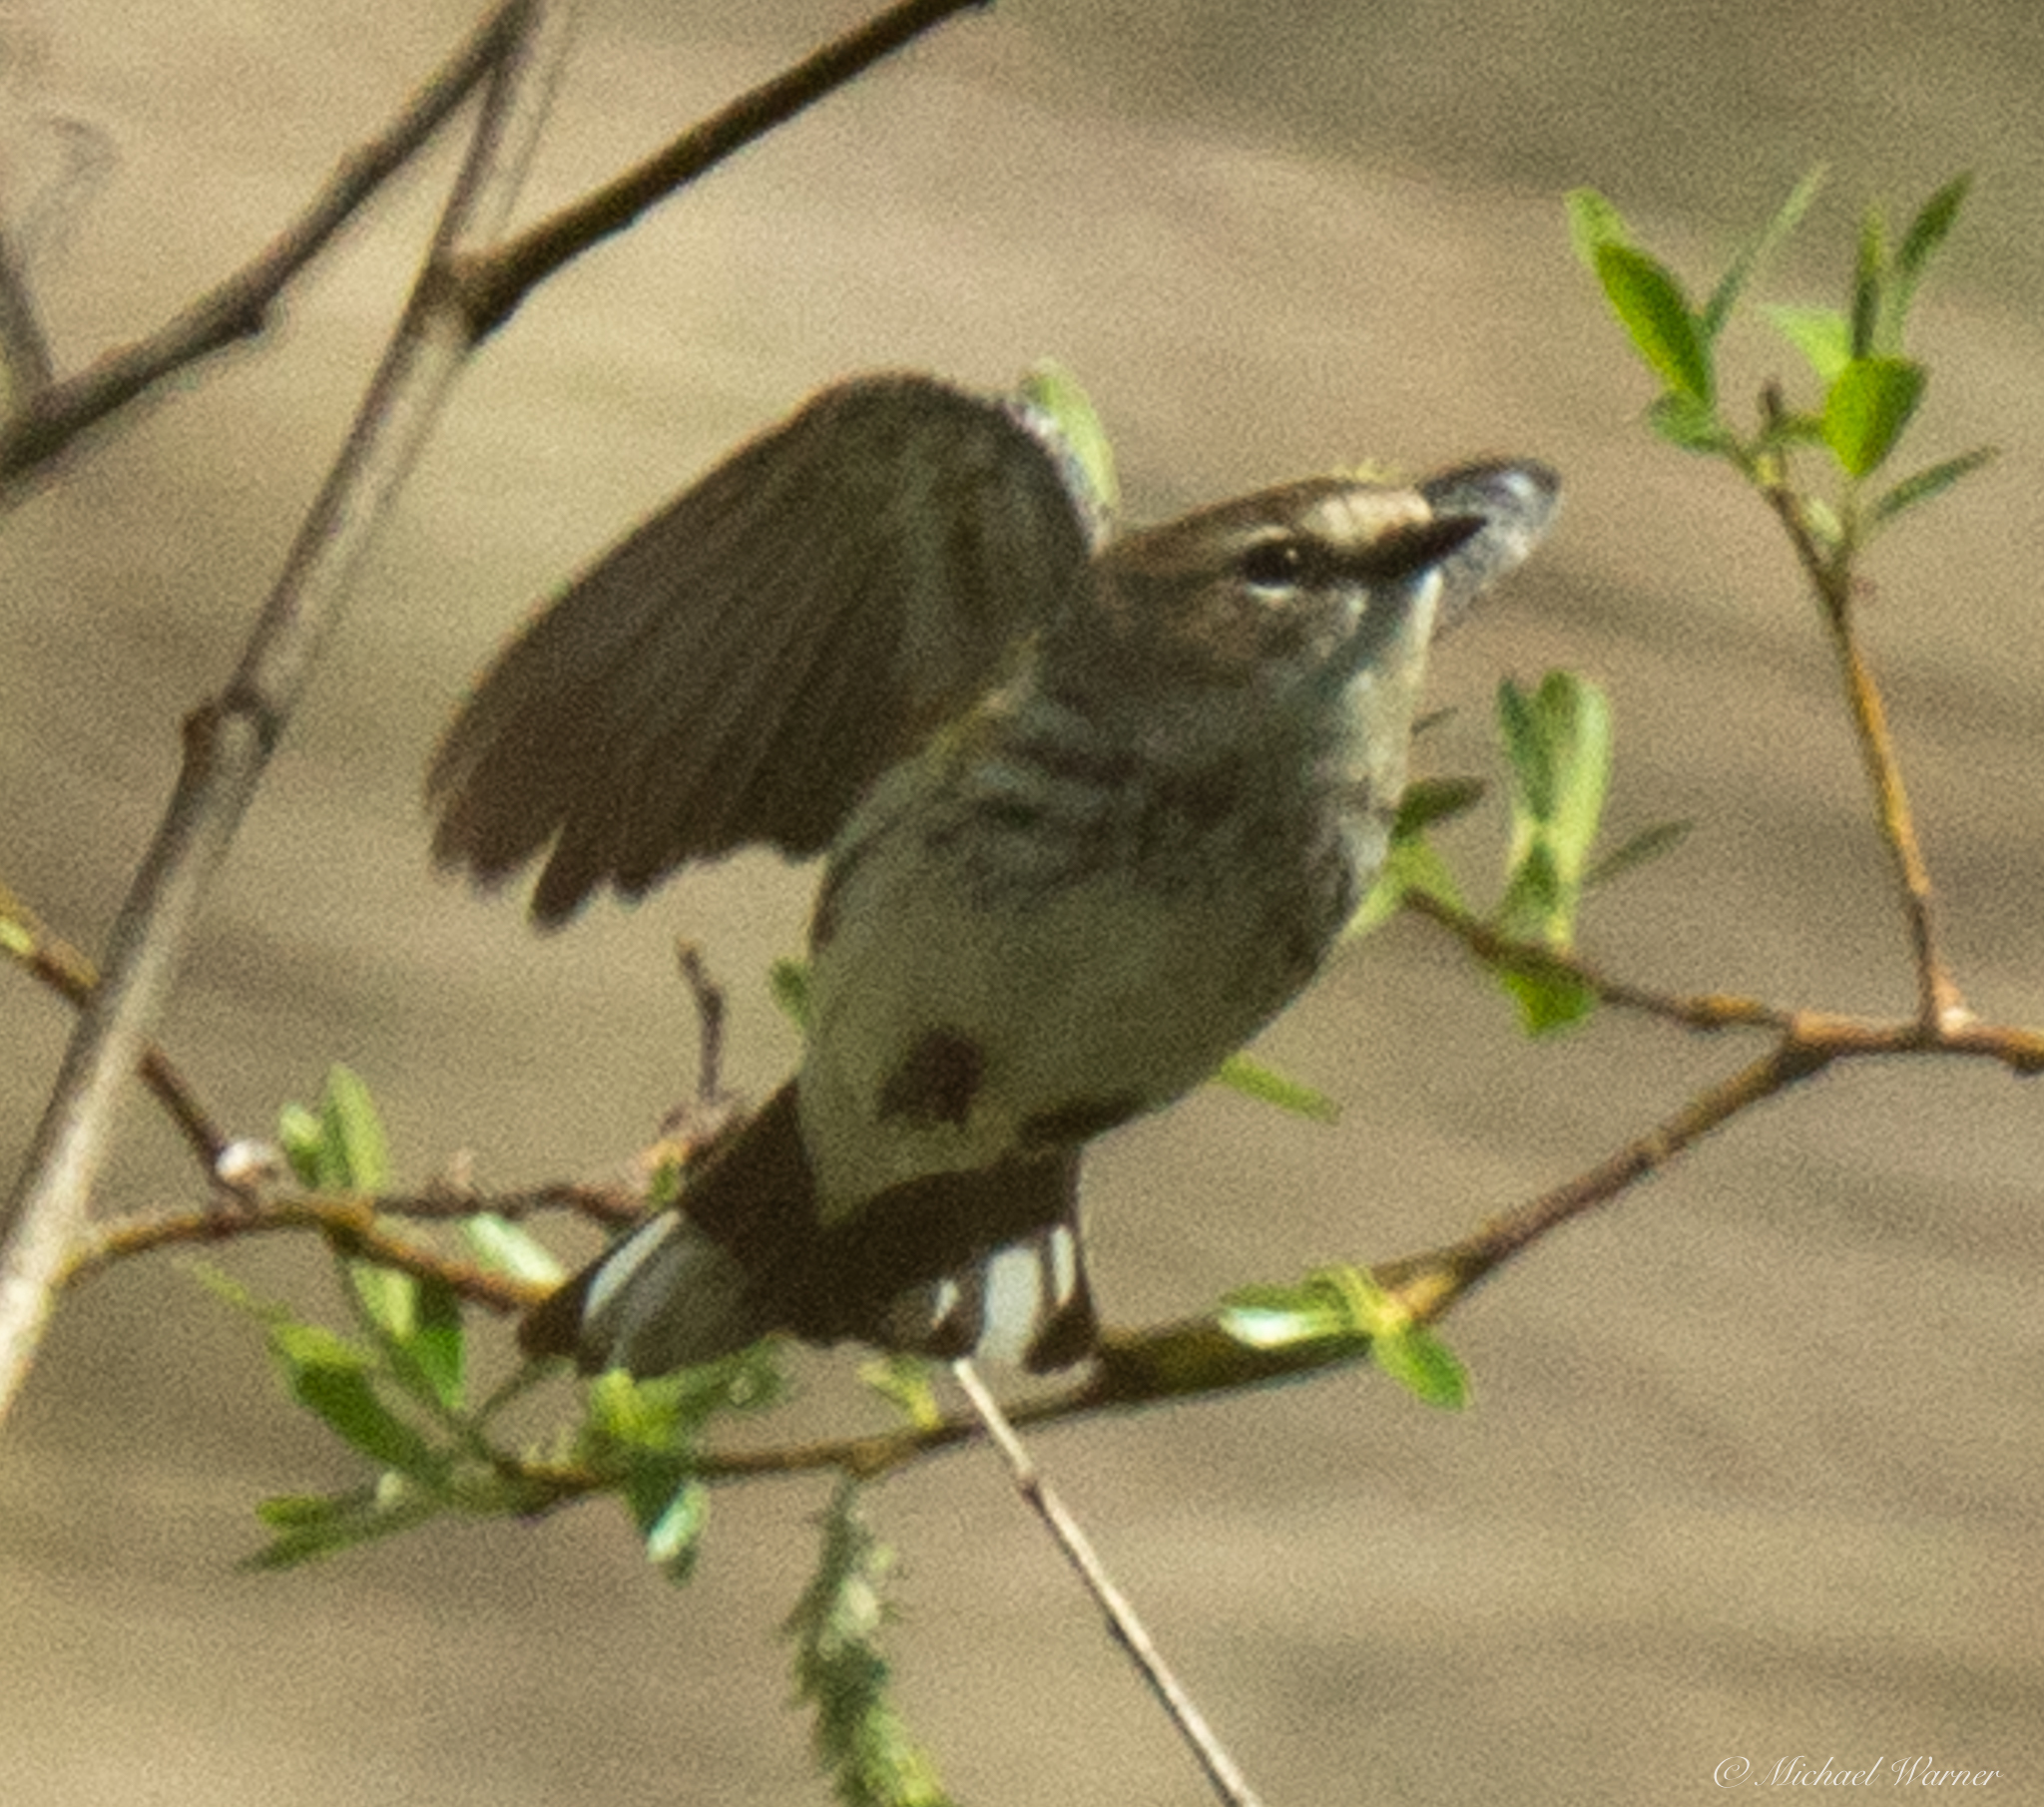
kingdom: Animalia
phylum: Chordata
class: Aves
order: Passeriformes
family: Parulidae
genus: Setophaga
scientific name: Setophaga coronata
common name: Myrtle warbler
